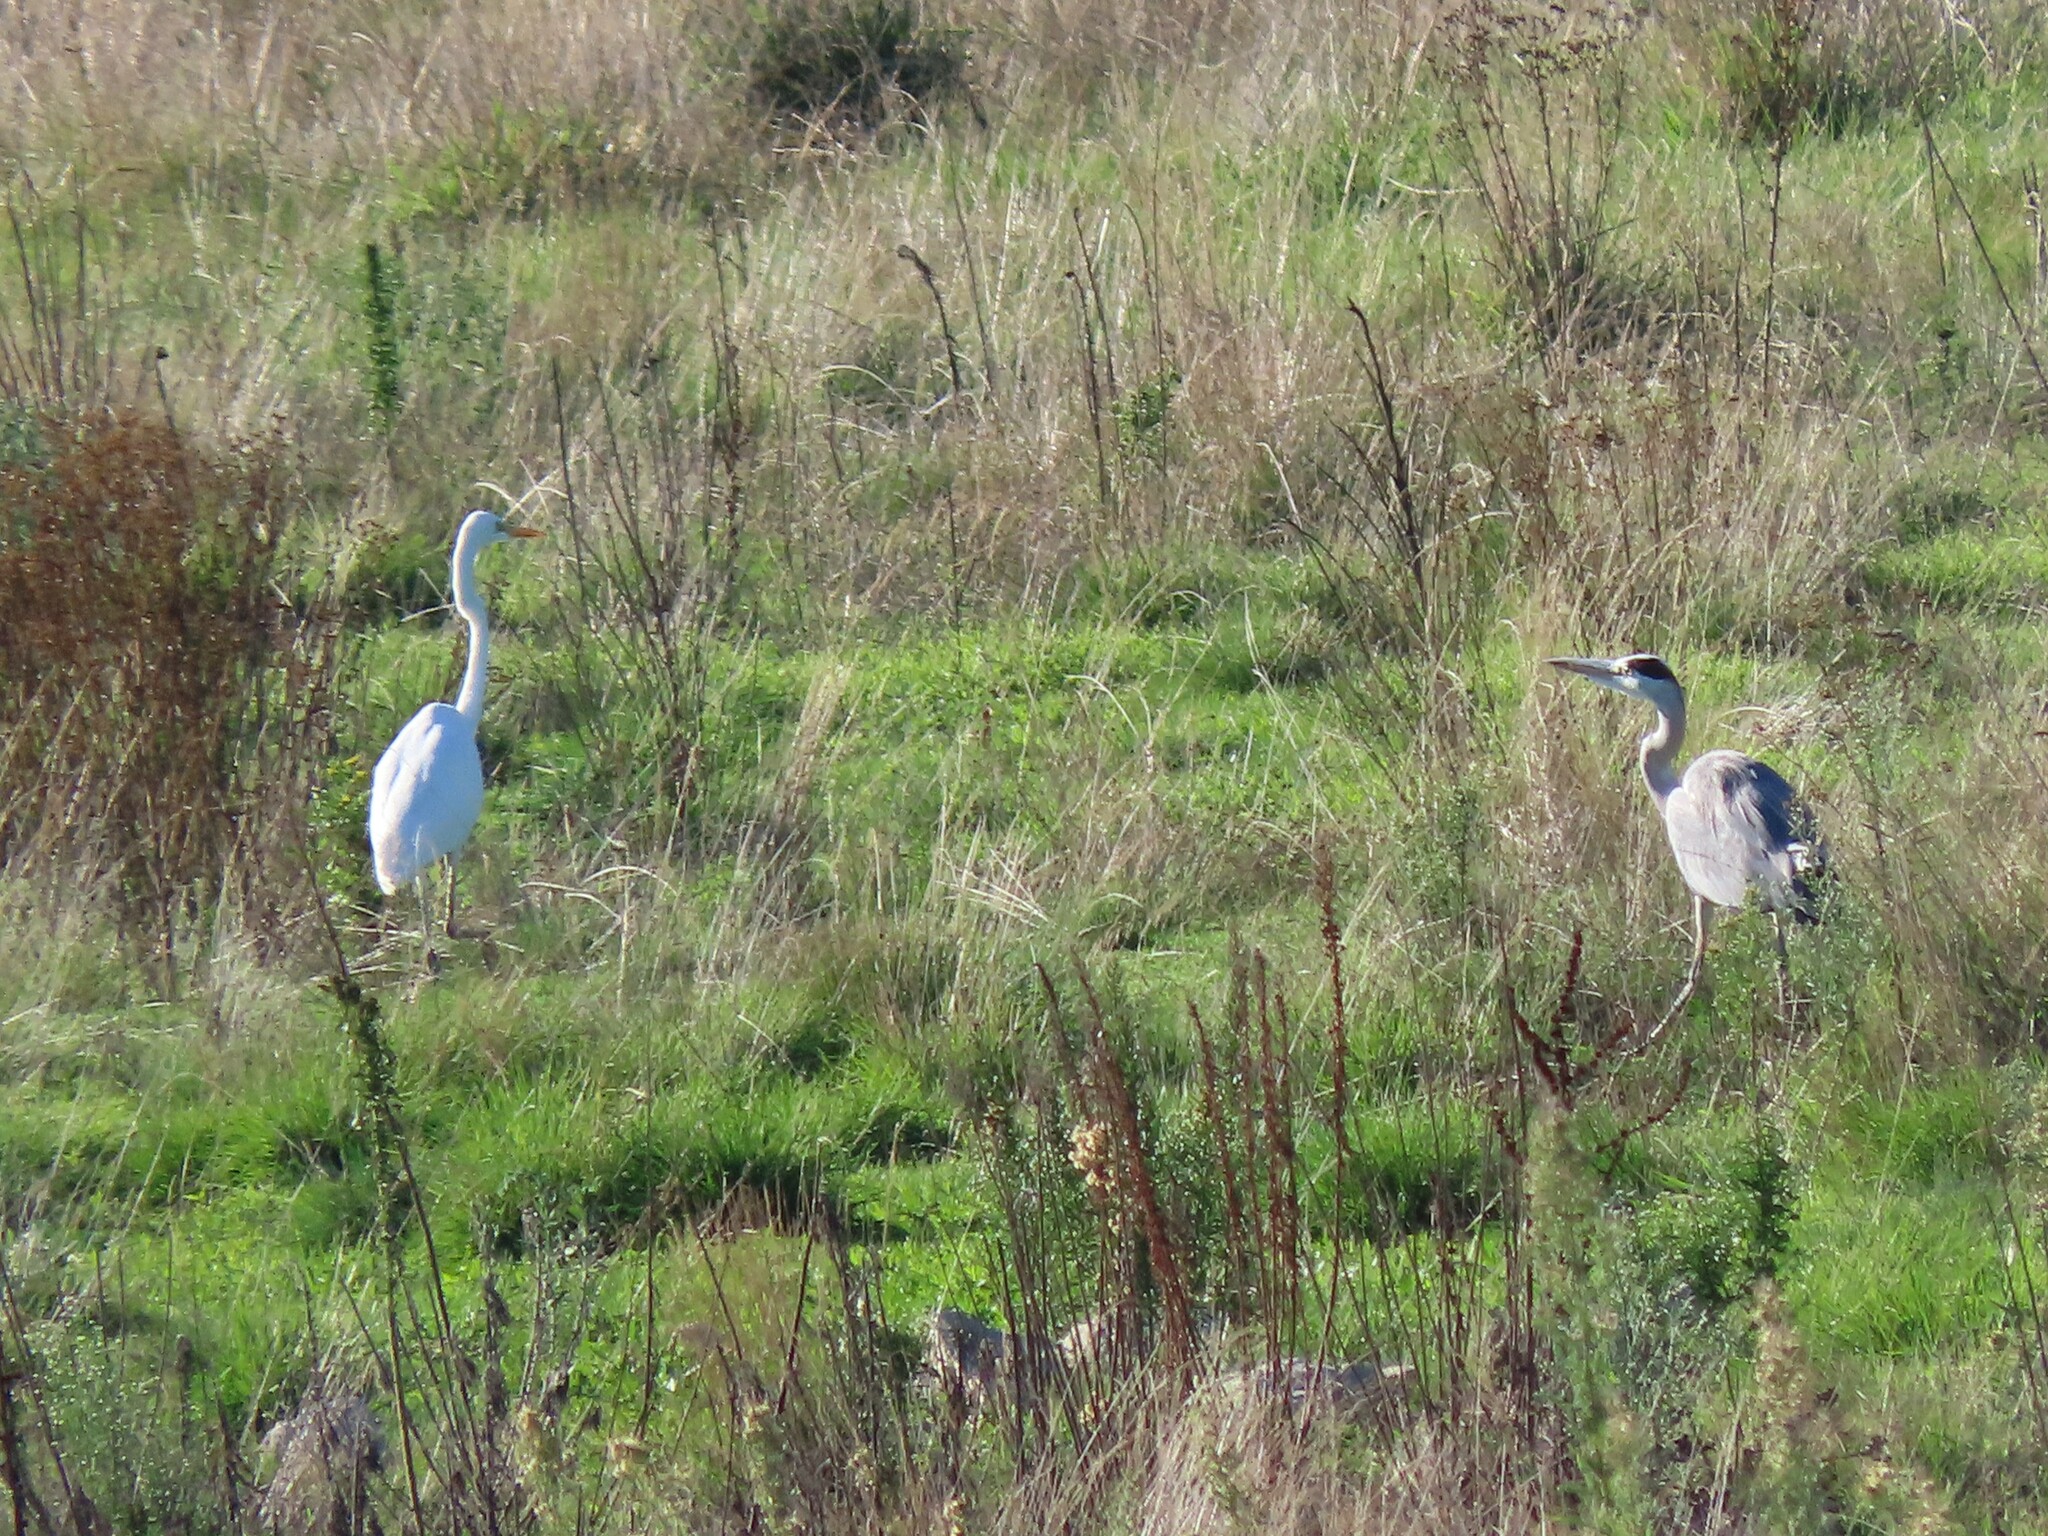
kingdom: Animalia
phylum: Chordata
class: Aves
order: Pelecaniformes
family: Ardeidae
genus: Ardea
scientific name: Ardea alba
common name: Great egret
